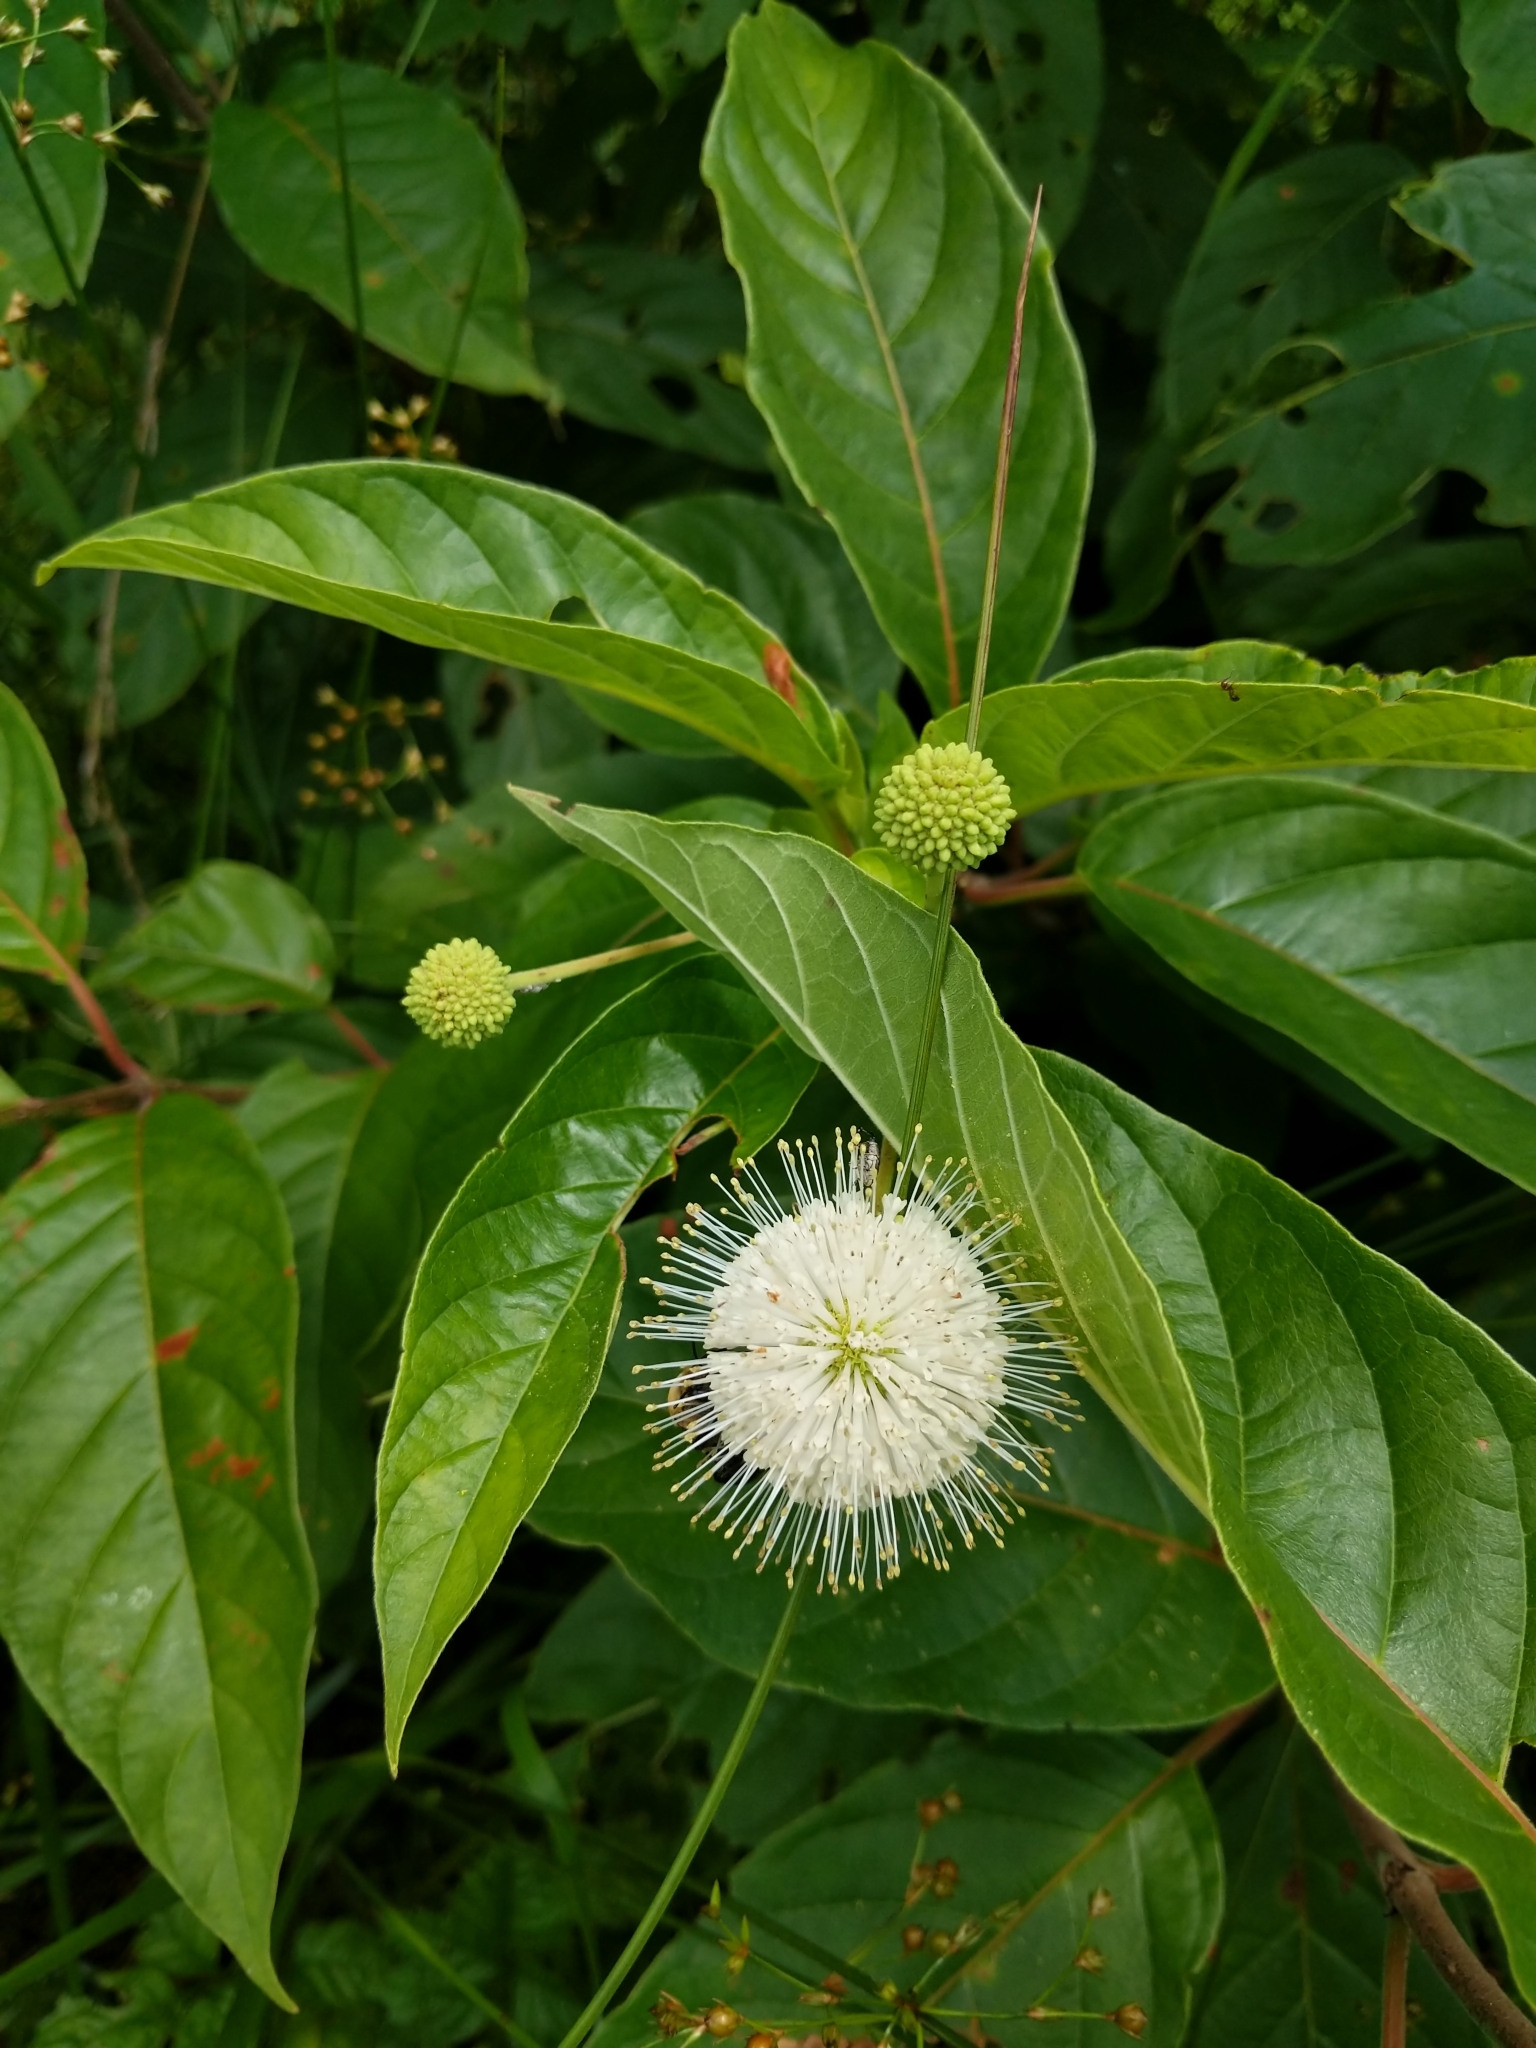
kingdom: Plantae
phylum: Tracheophyta
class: Magnoliopsida
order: Gentianales
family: Rubiaceae
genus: Cephalanthus
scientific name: Cephalanthus occidentalis
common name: Button-willow
